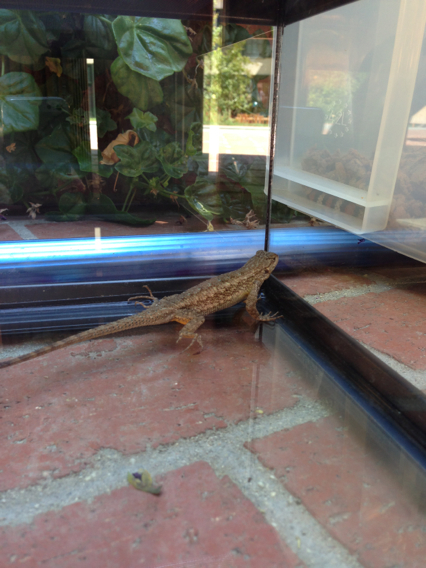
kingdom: Animalia
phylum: Chordata
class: Squamata
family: Phrynosomatidae
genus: Sceloporus
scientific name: Sceloporus occidentalis
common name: Western fence lizard
